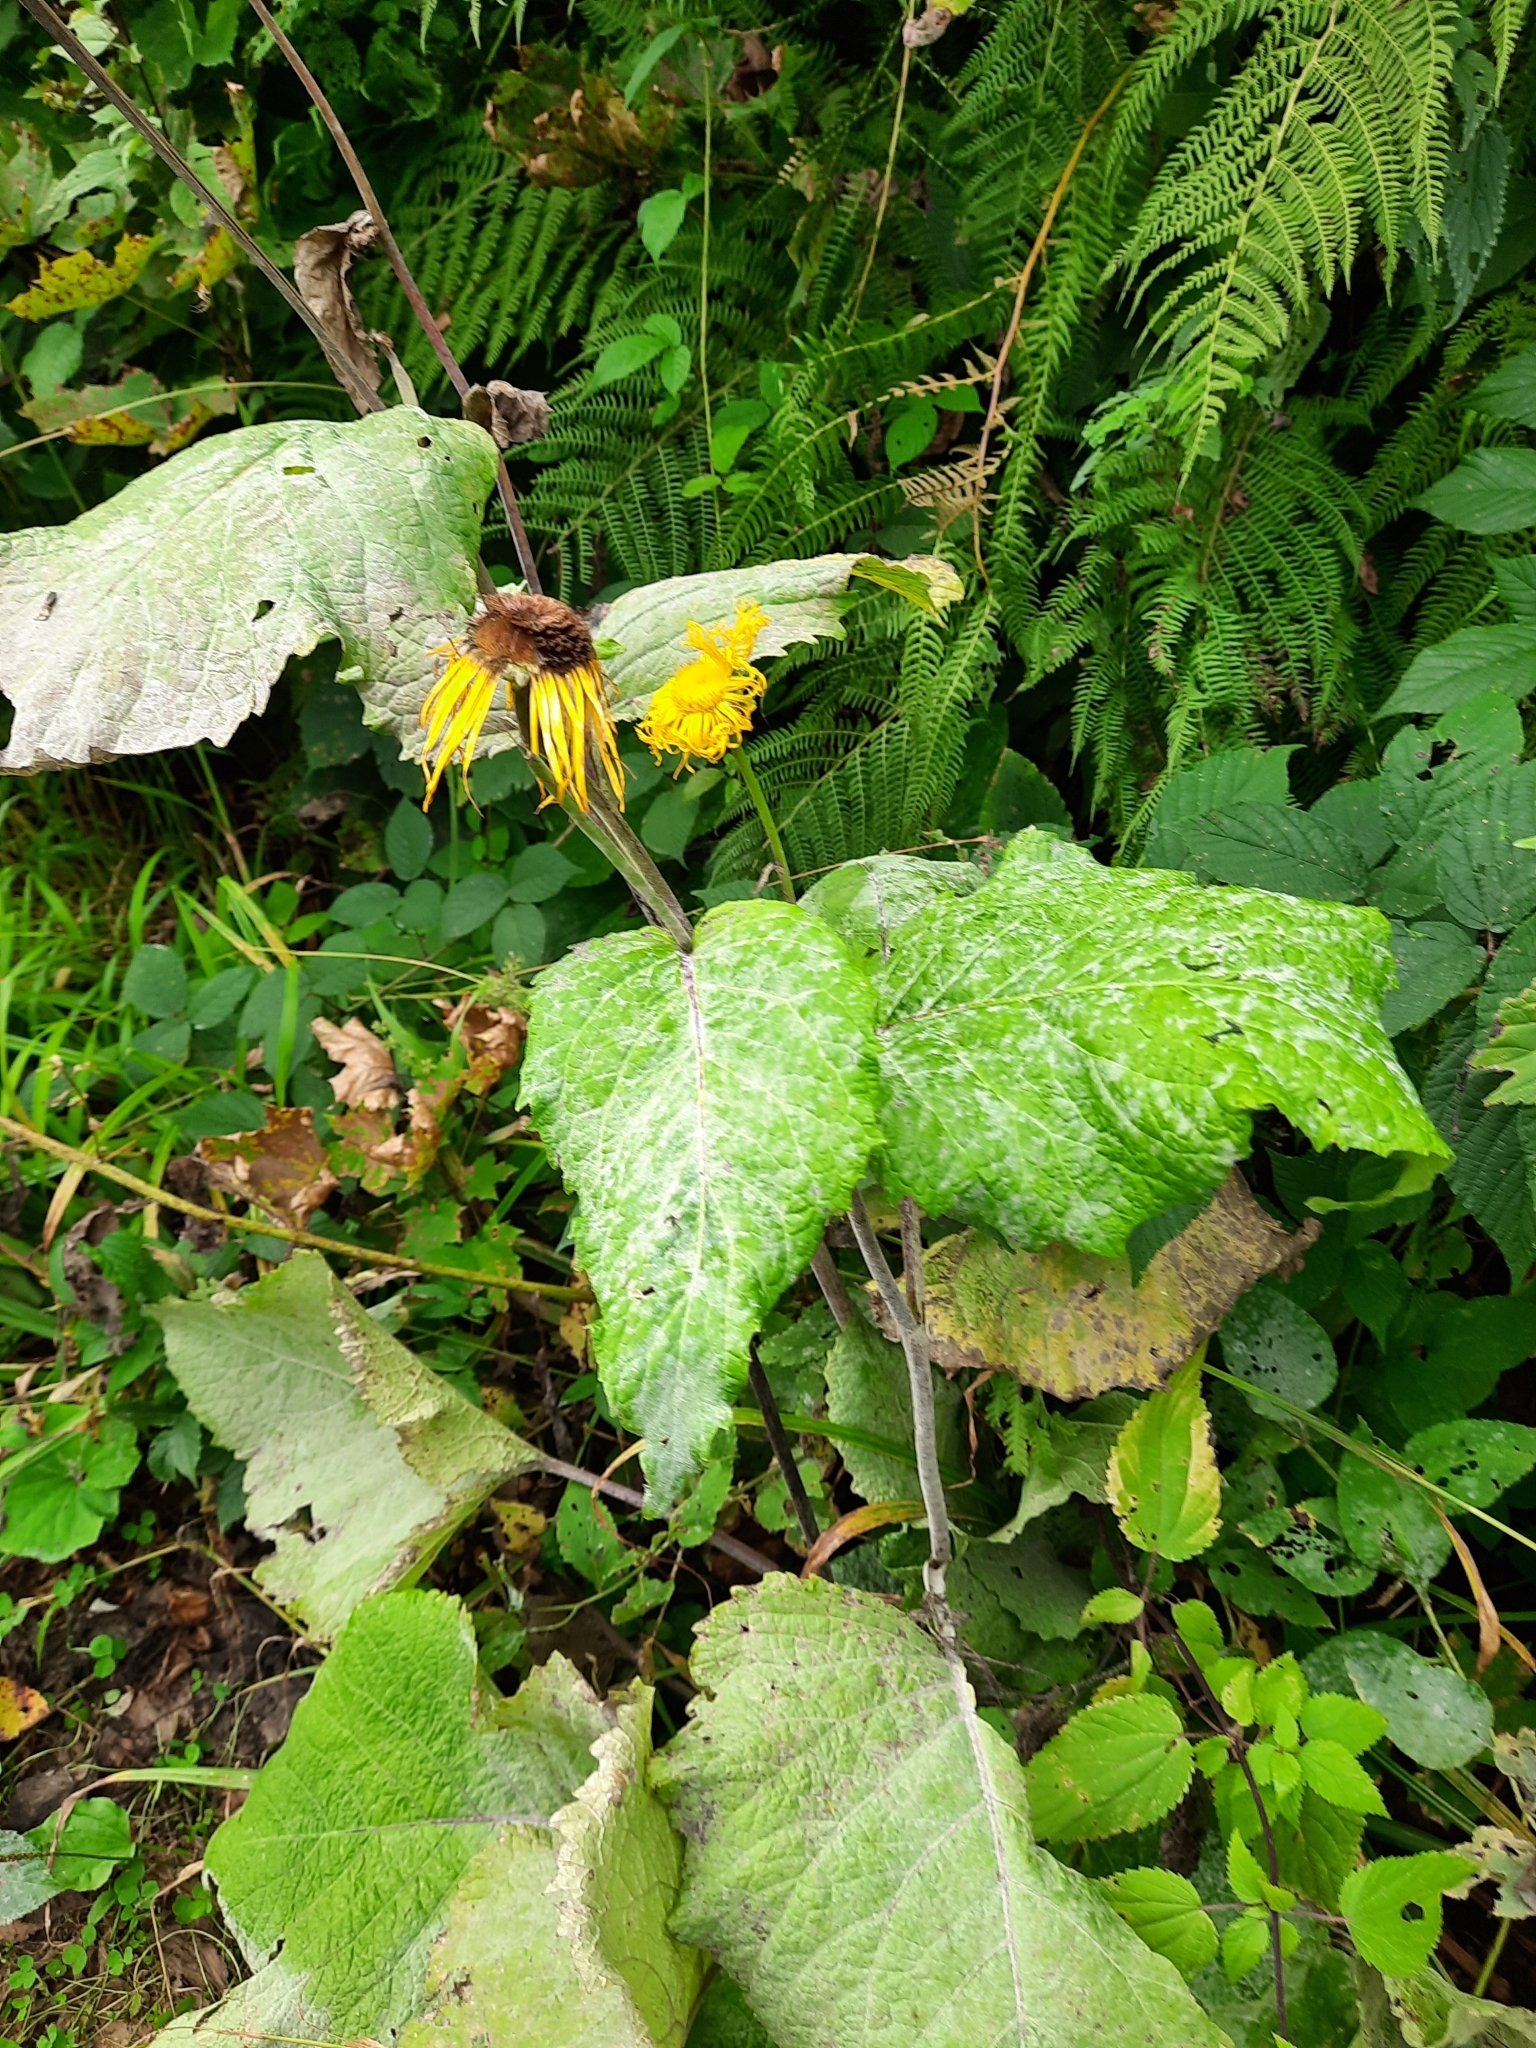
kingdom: Plantae
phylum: Tracheophyta
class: Magnoliopsida
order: Asterales
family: Asteraceae
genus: Telekia
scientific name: Telekia speciosa
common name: Yellow oxeye
